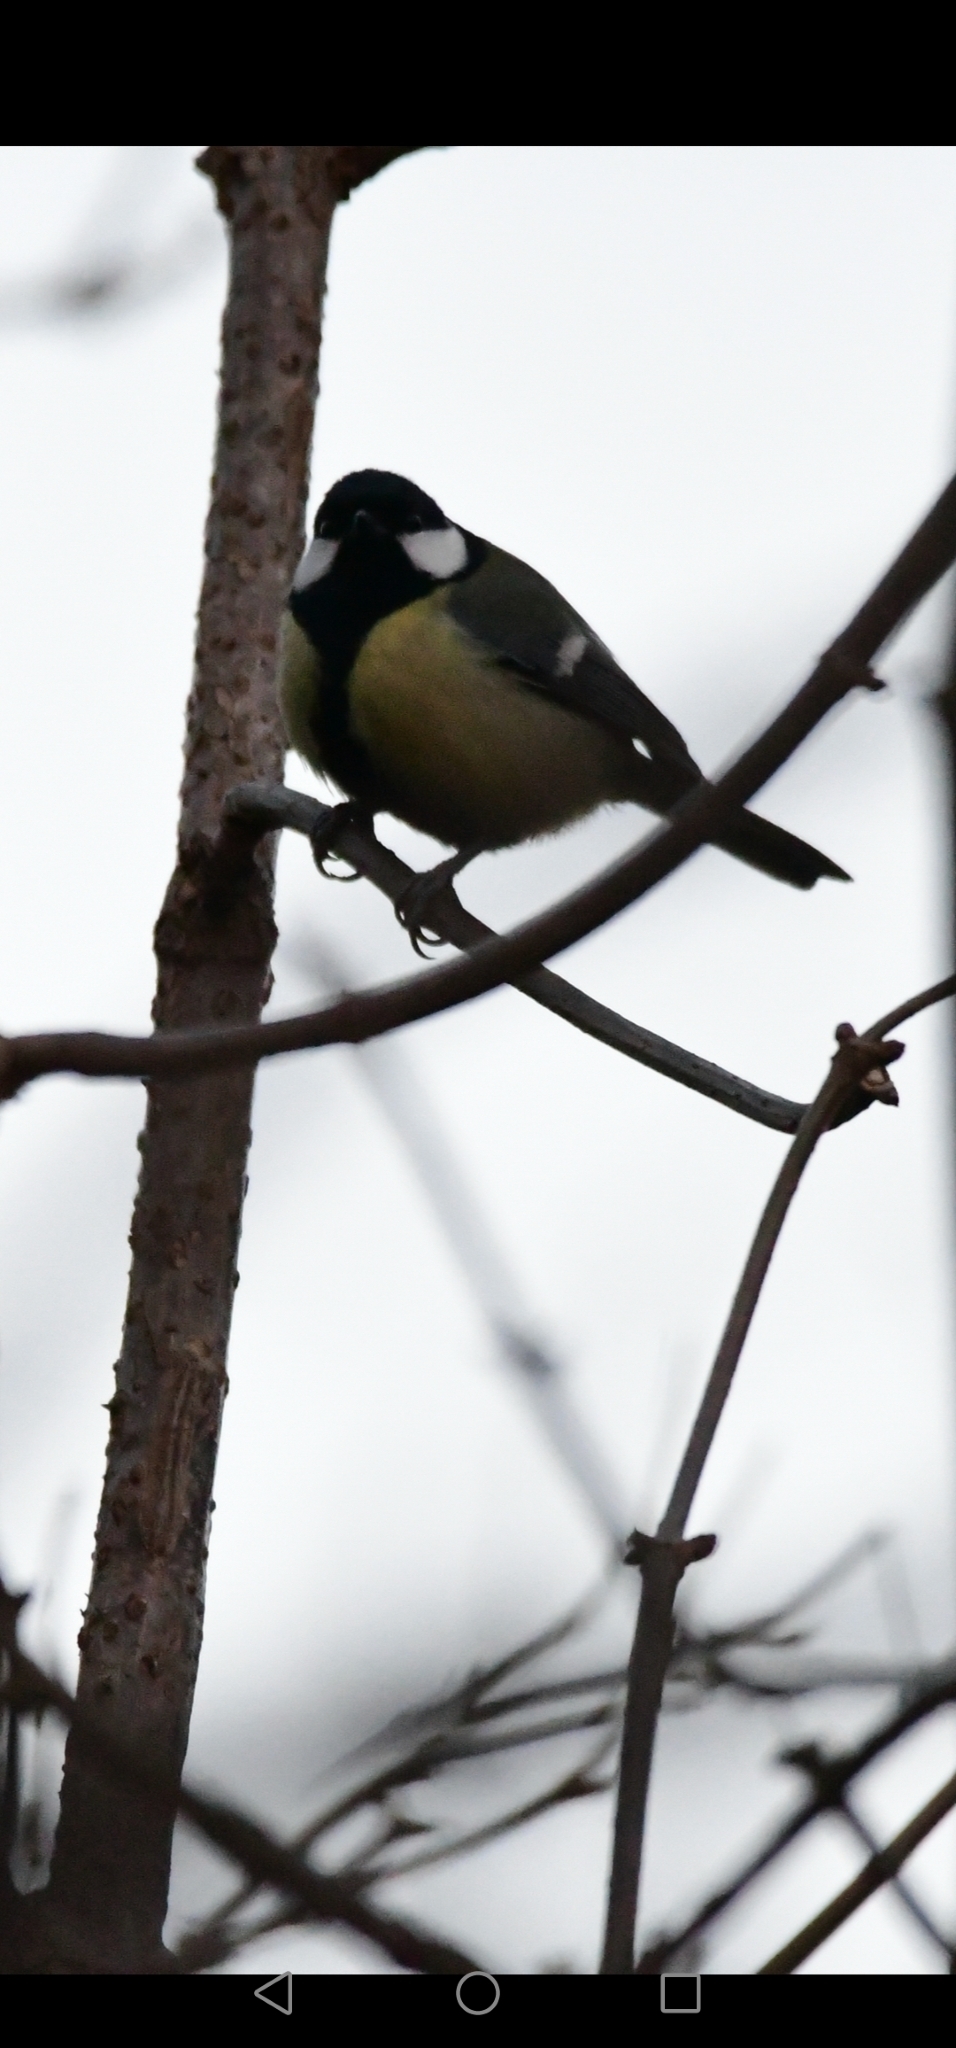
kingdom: Animalia
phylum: Chordata
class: Aves
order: Passeriformes
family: Paridae
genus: Parus
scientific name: Parus major
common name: Great tit
